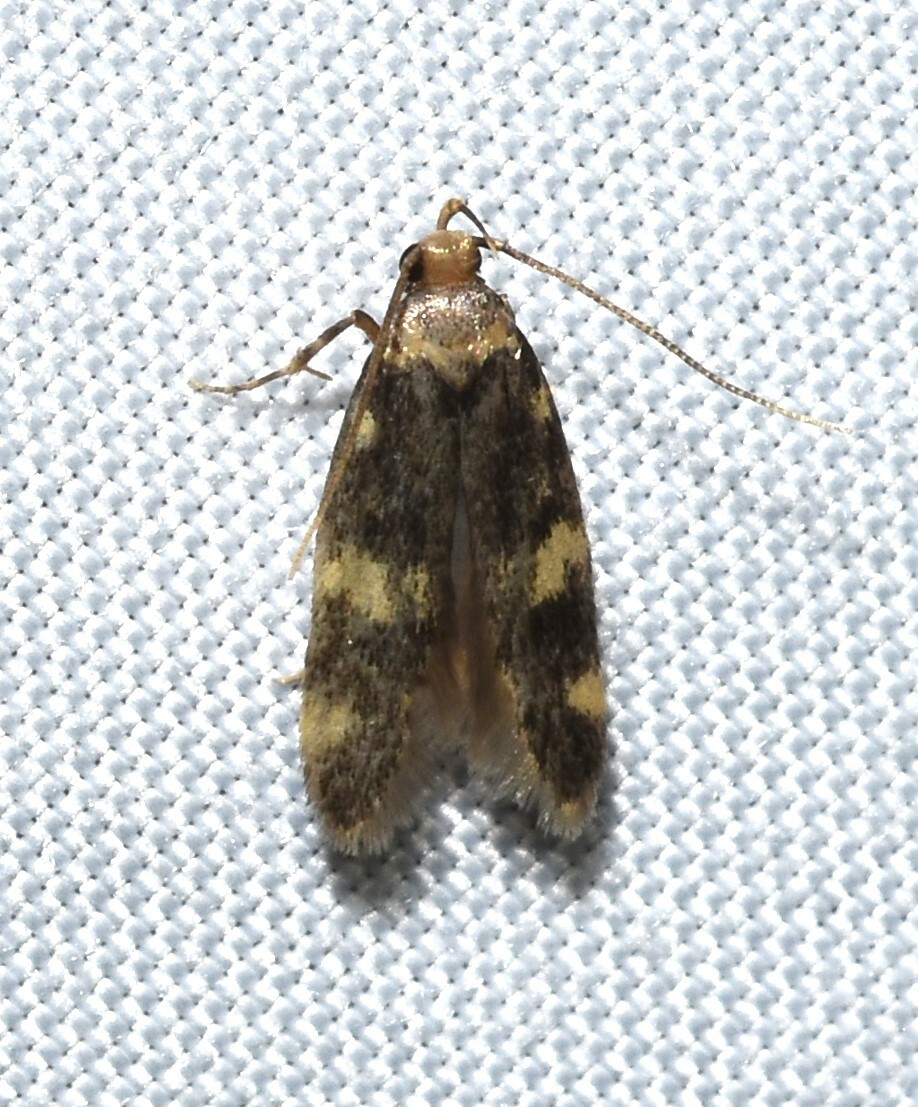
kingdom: Animalia
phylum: Arthropoda
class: Insecta
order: Lepidoptera
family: Autostichidae
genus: Oegoconia
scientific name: Oegoconia quadripuncta
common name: Four-spotted obscure
